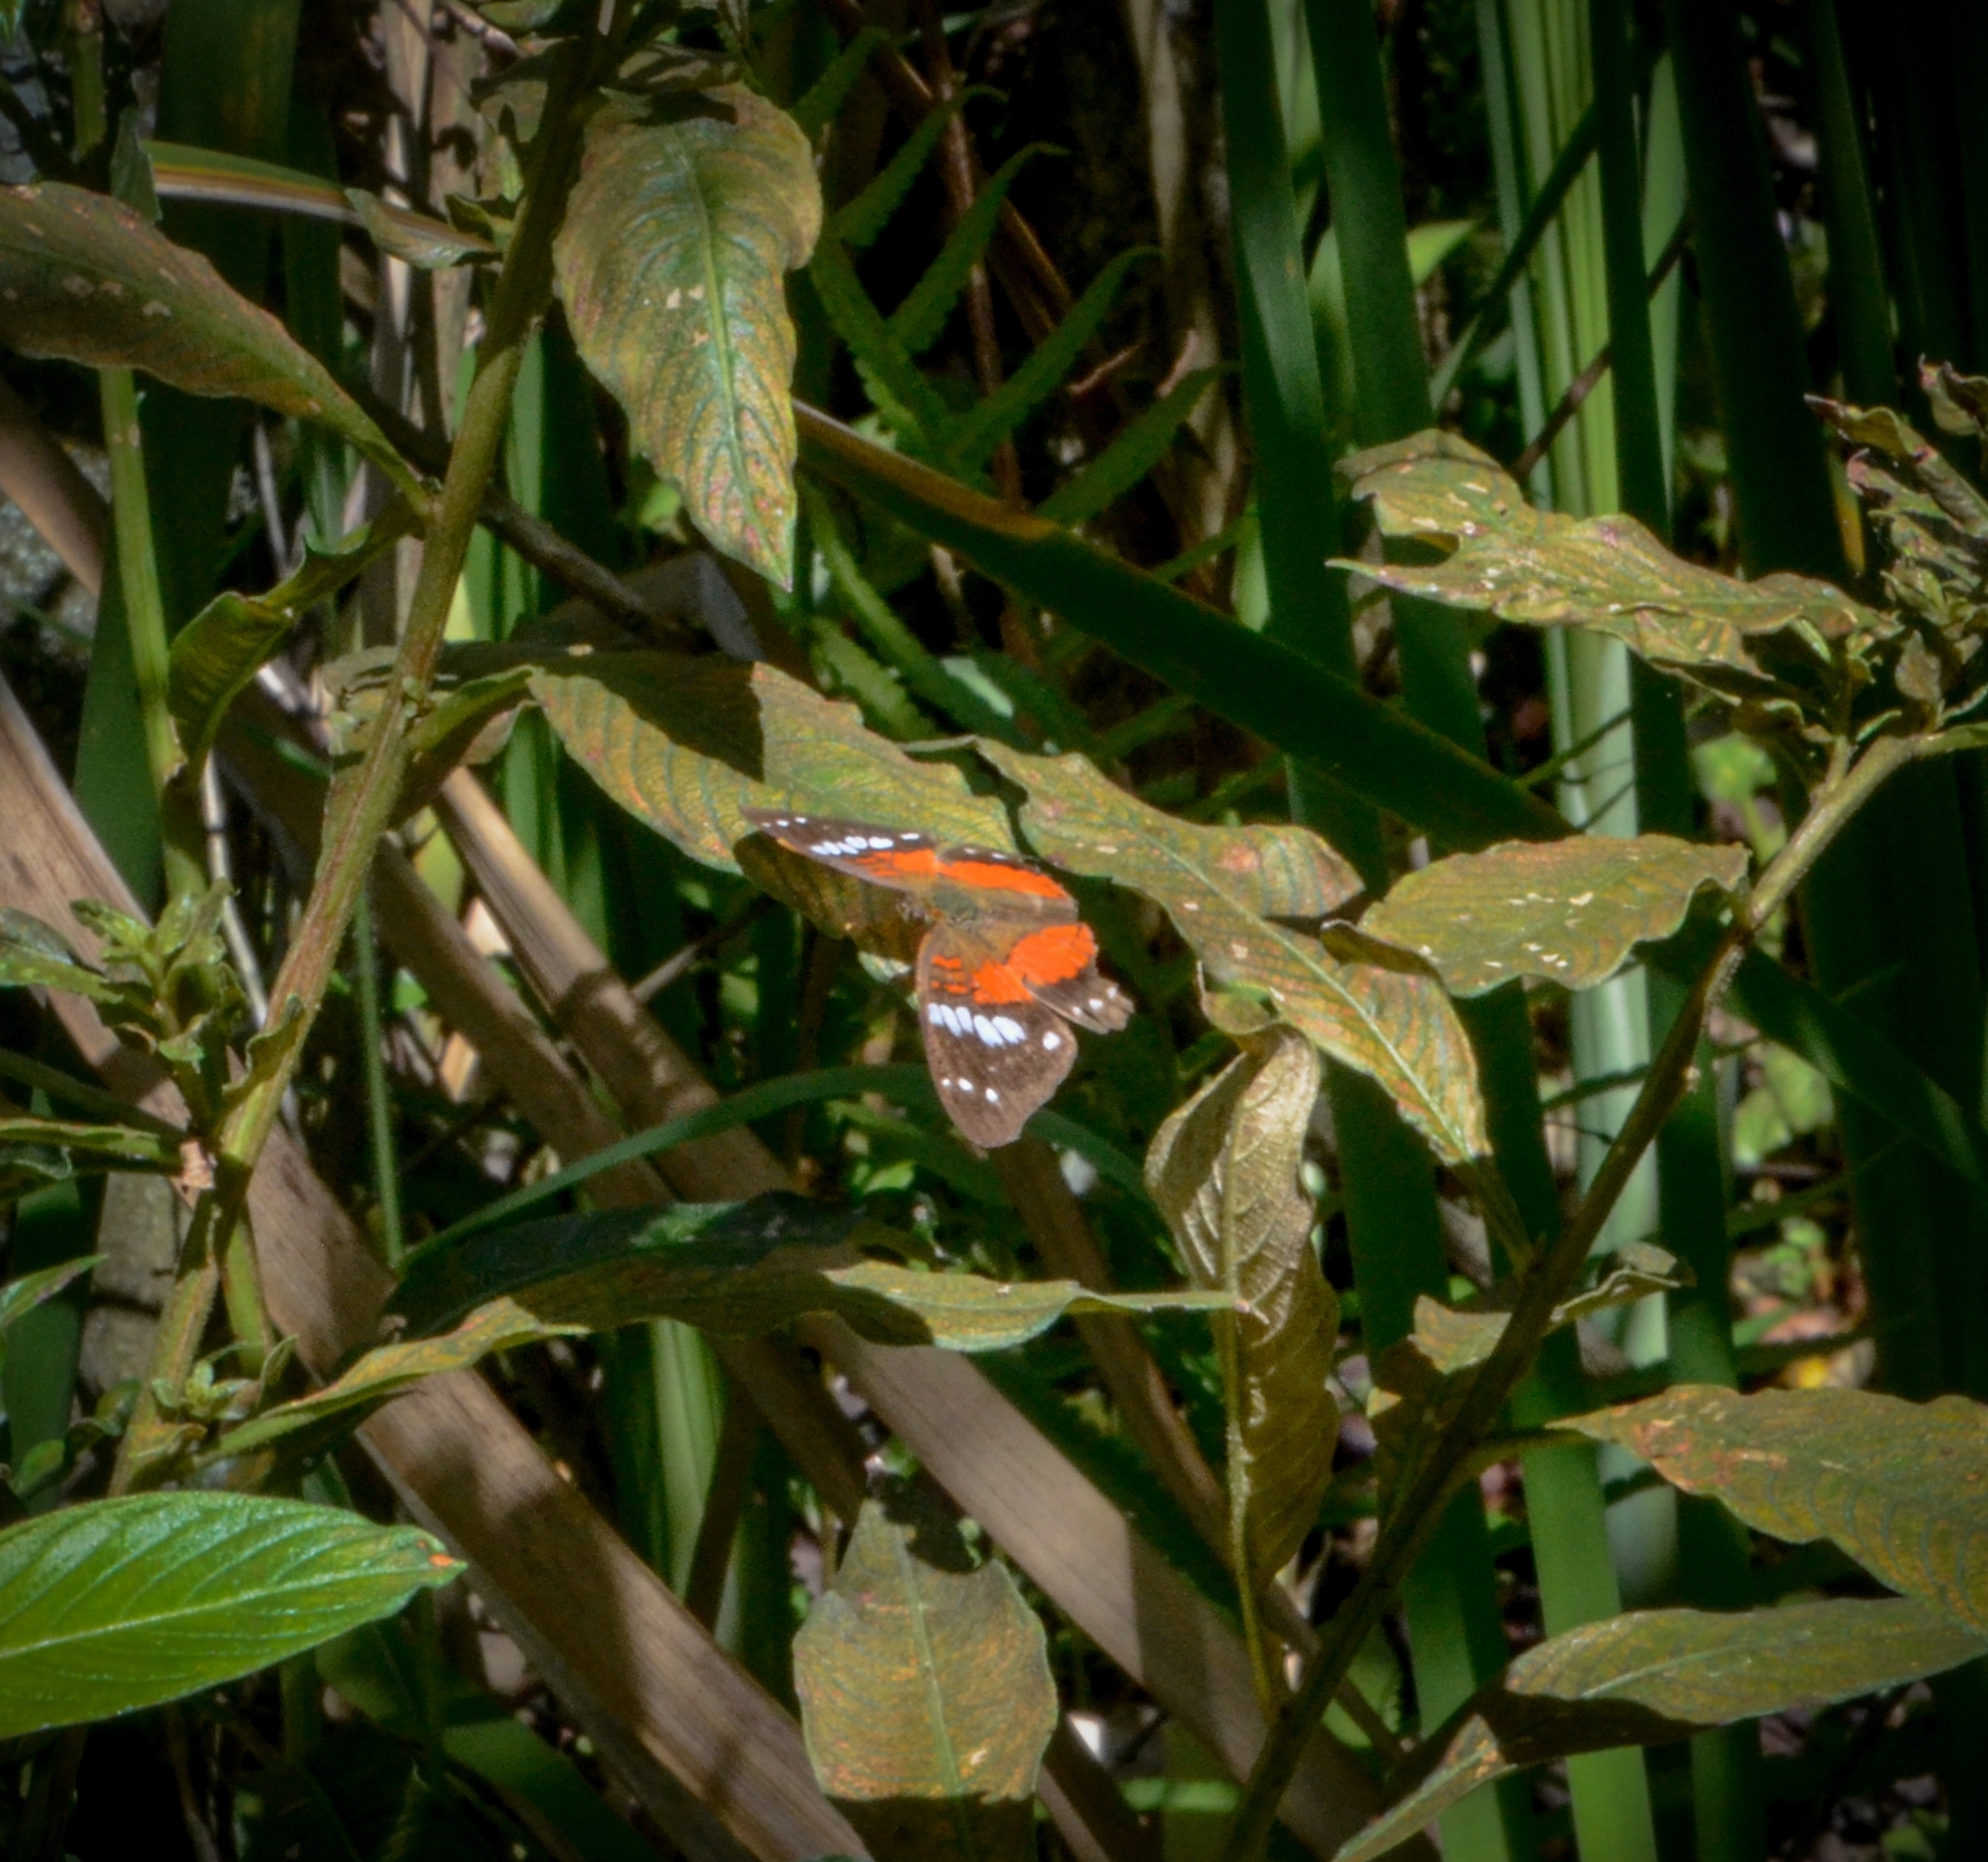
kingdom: Animalia
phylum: Arthropoda
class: Insecta
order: Lepidoptera
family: Nymphalidae
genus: Anartia
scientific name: Anartia amathea
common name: Red peacock
